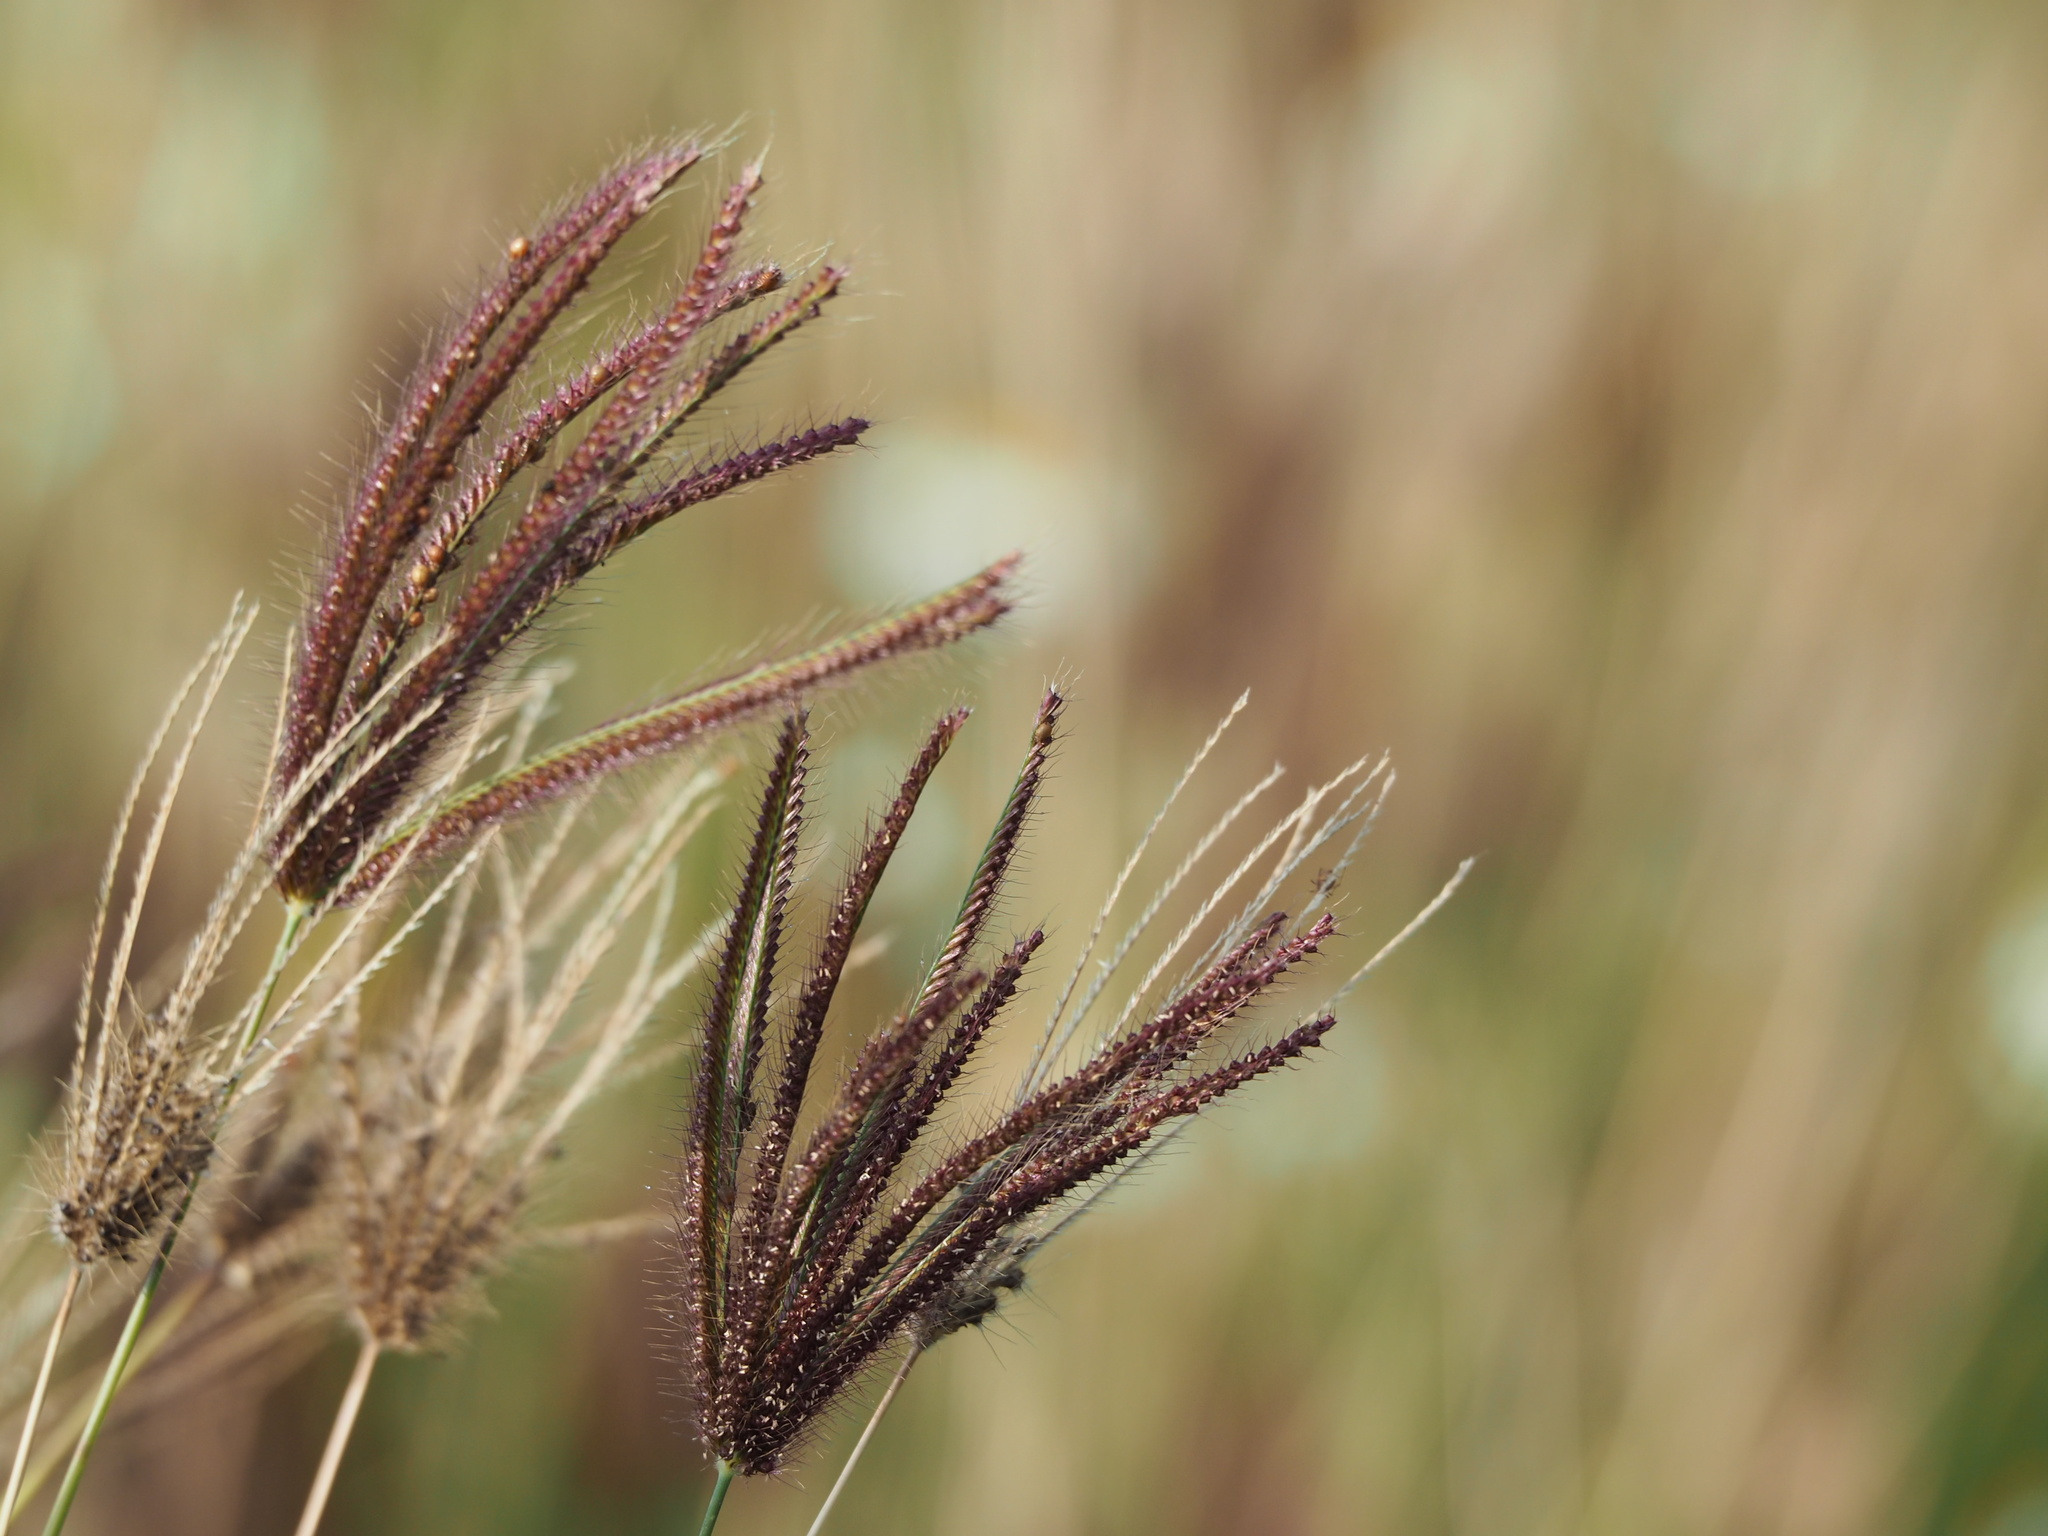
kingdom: Plantae
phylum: Tracheophyta
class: Liliopsida
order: Poales
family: Poaceae
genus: Chloris
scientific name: Chloris barbata
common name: Swollen fingergrass
